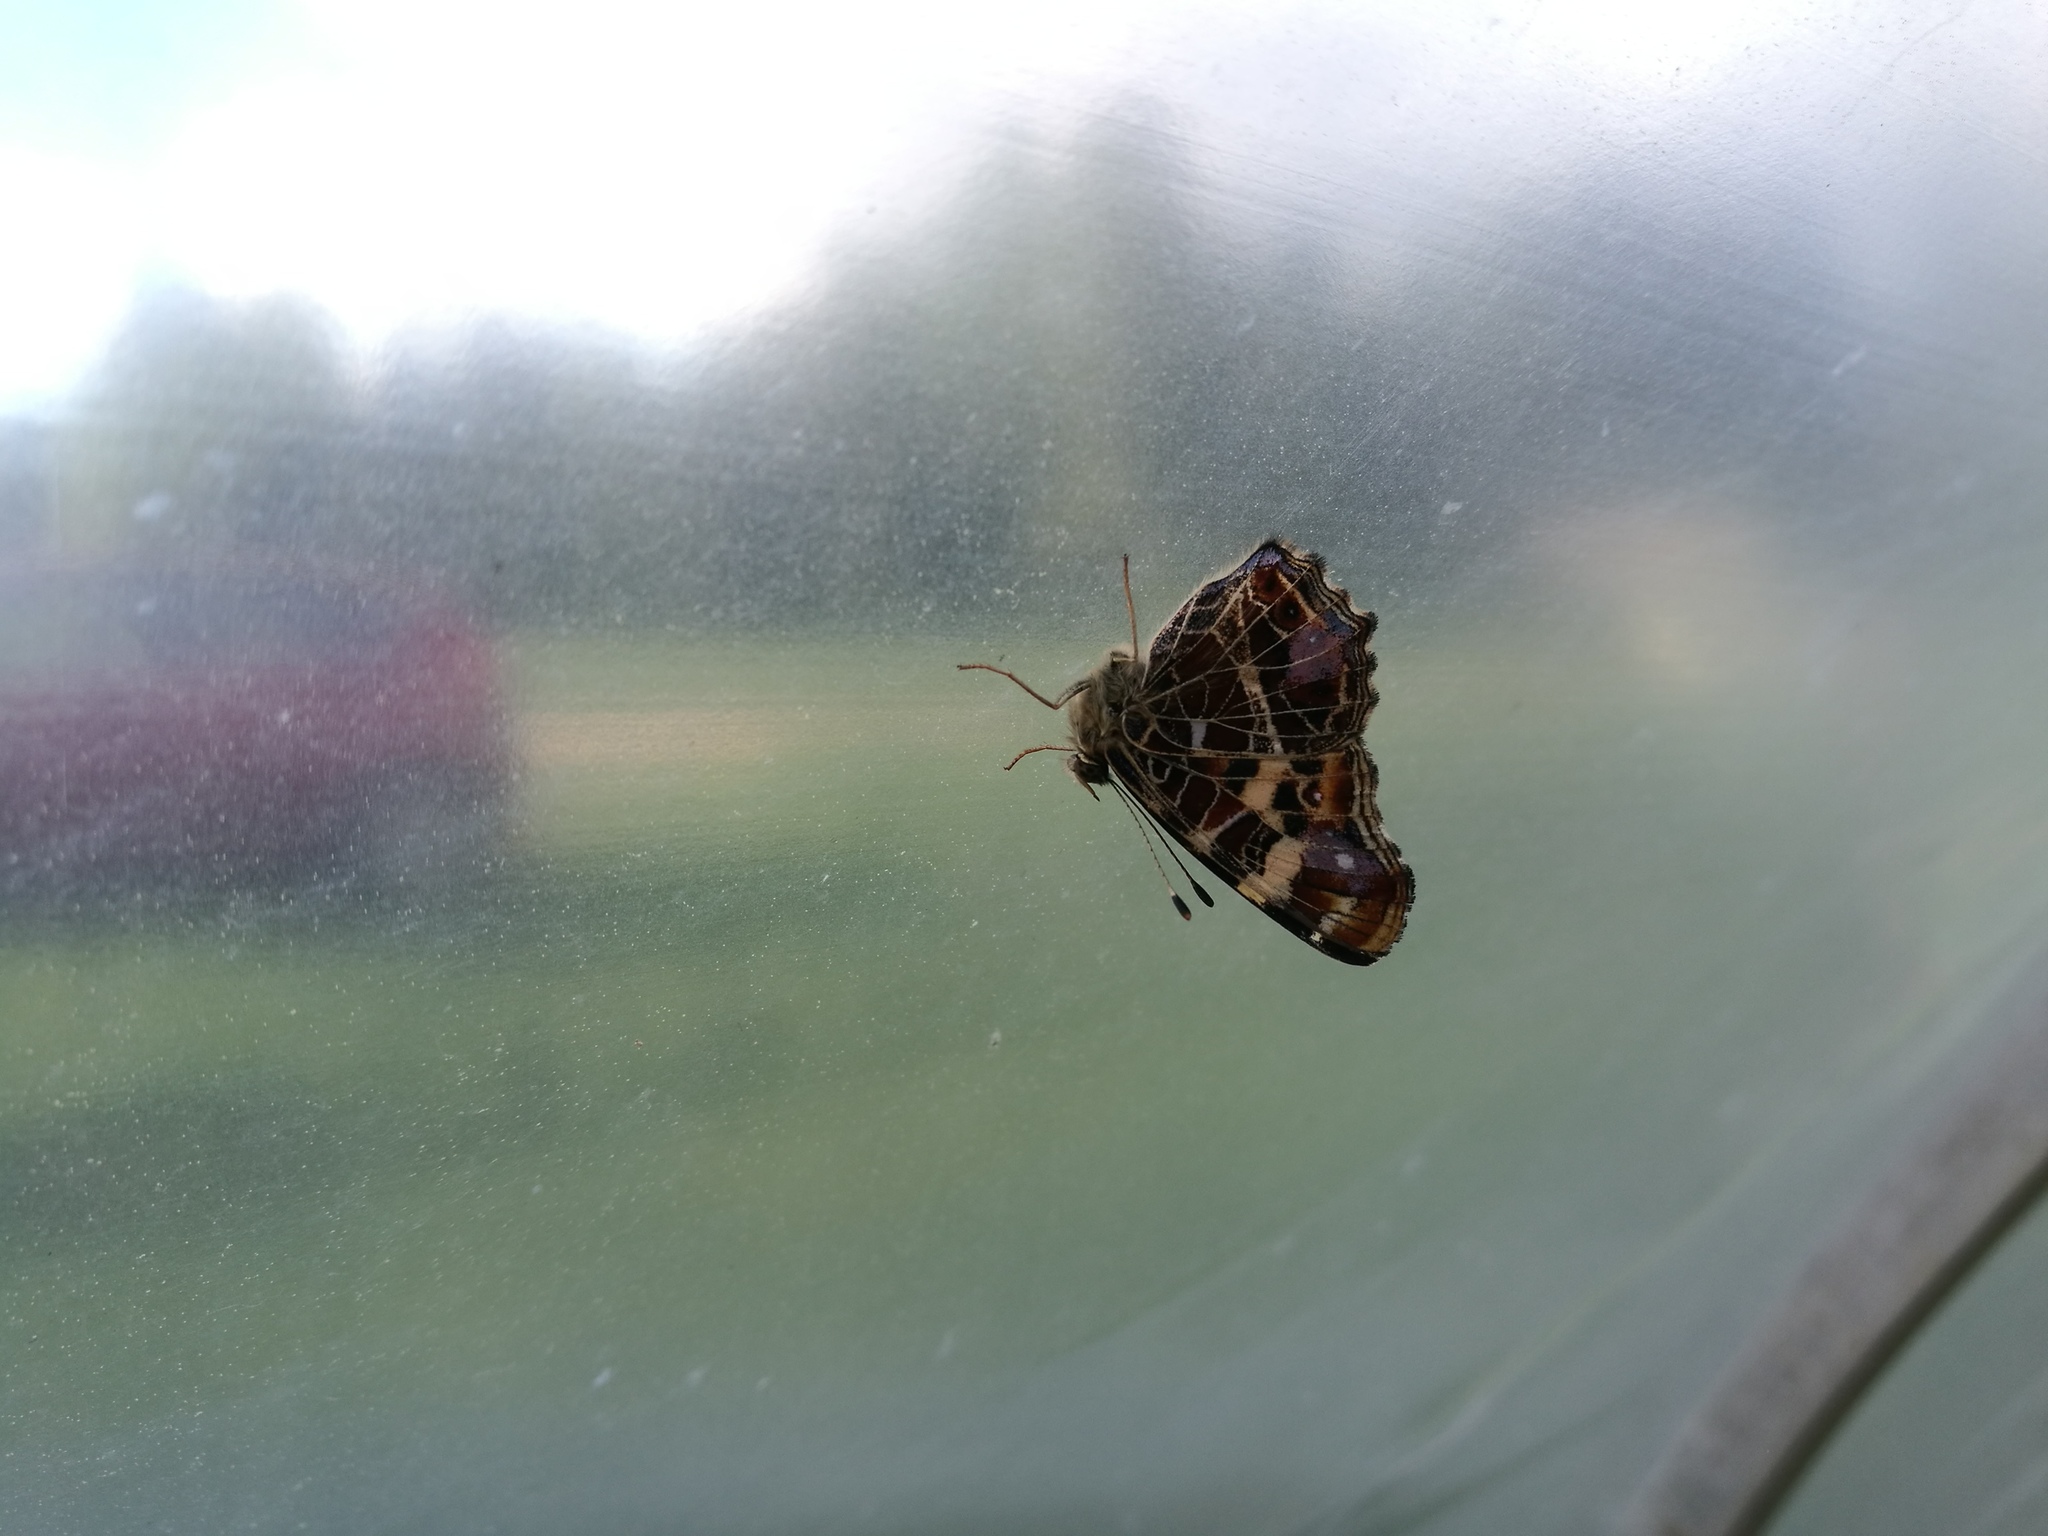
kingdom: Animalia
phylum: Arthropoda
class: Insecta
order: Lepidoptera
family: Nymphalidae
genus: Araschnia
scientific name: Araschnia levana
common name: Map butterfly
